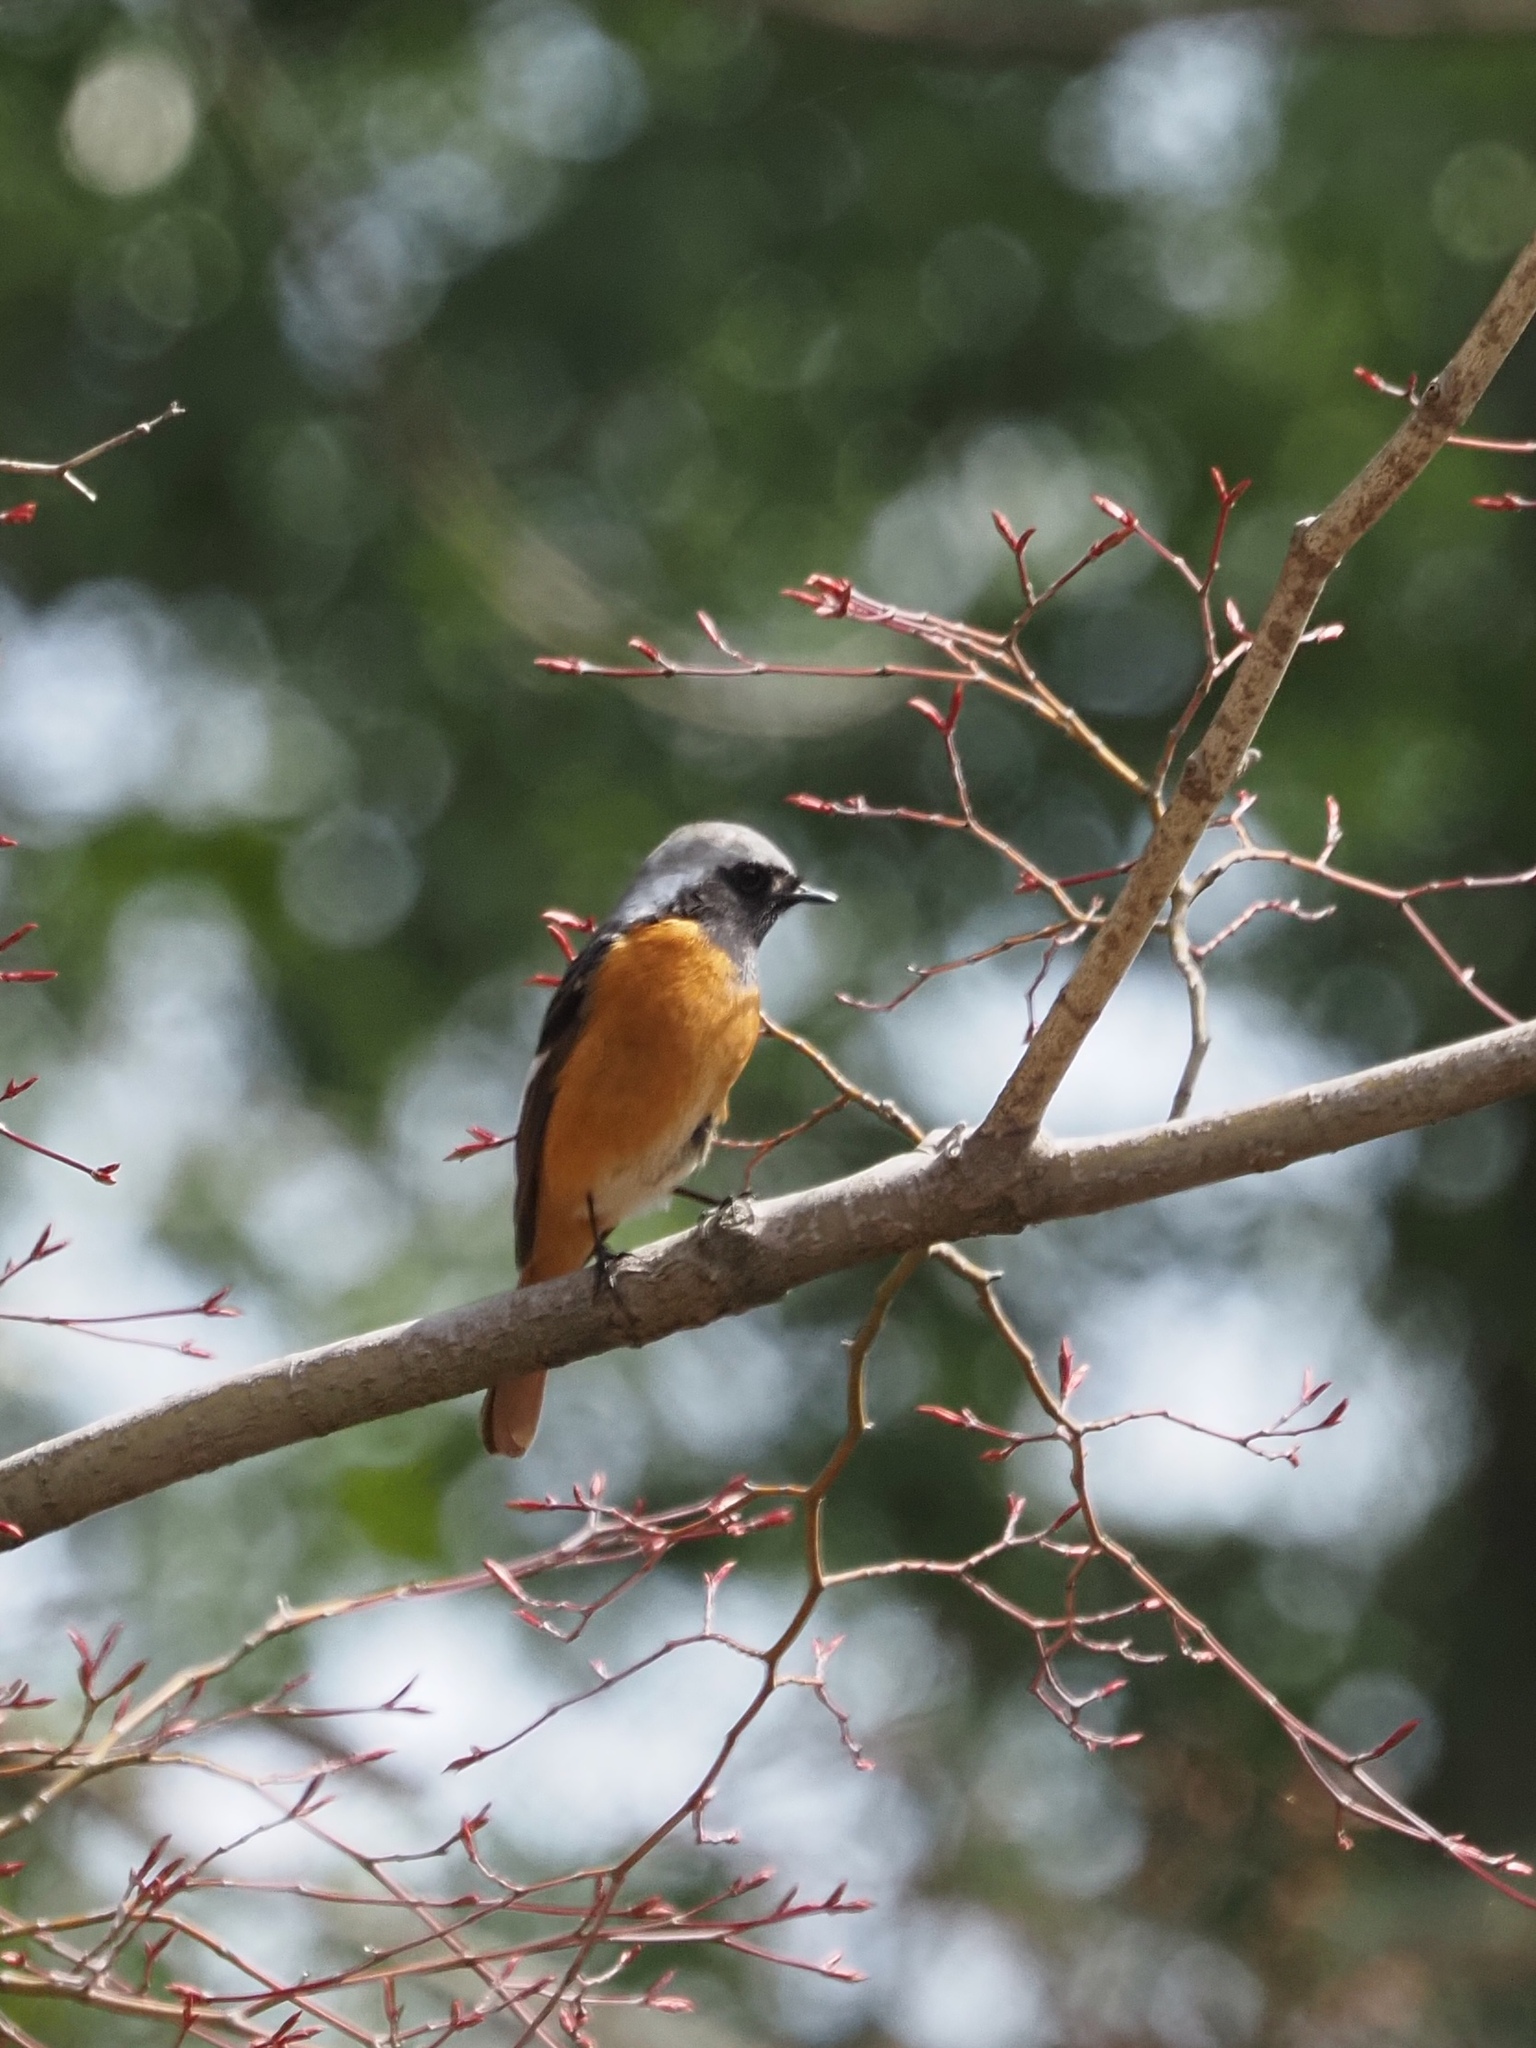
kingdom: Animalia
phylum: Chordata
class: Aves
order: Passeriformes
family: Muscicapidae
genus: Phoenicurus
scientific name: Phoenicurus auroreus
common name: Daurian redstart
